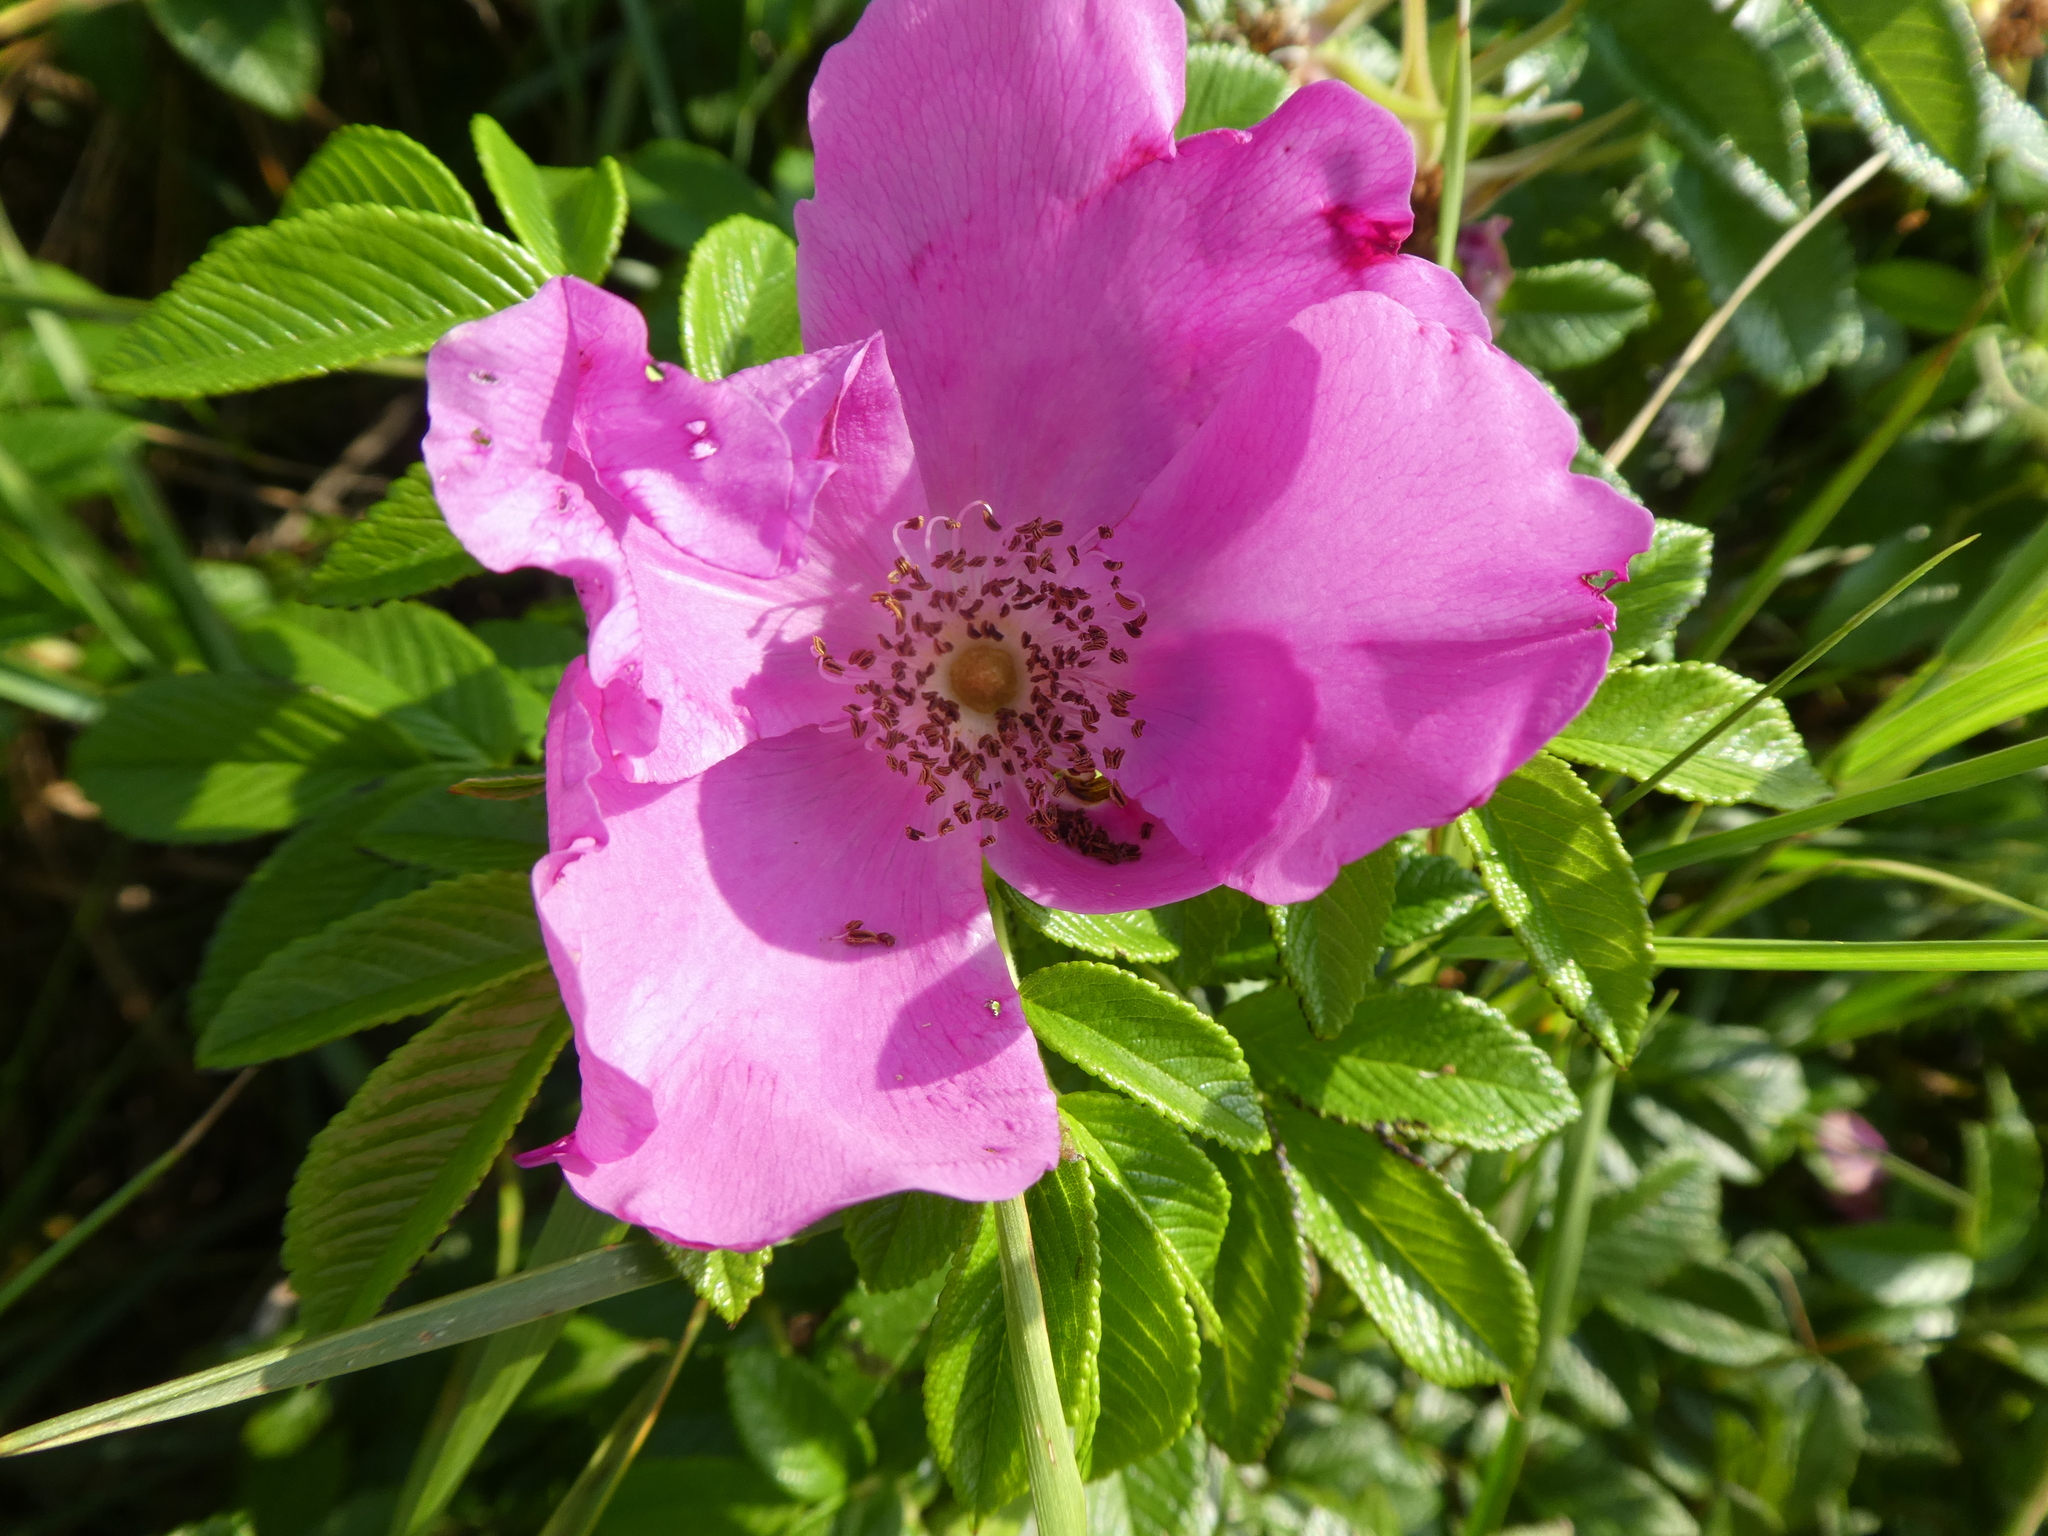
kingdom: Plantae
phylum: Tracheophyta
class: Magnoliopsida
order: Rosales
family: Rosaceae
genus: Rosa
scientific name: Rosa rugosa
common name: Japanese rose
